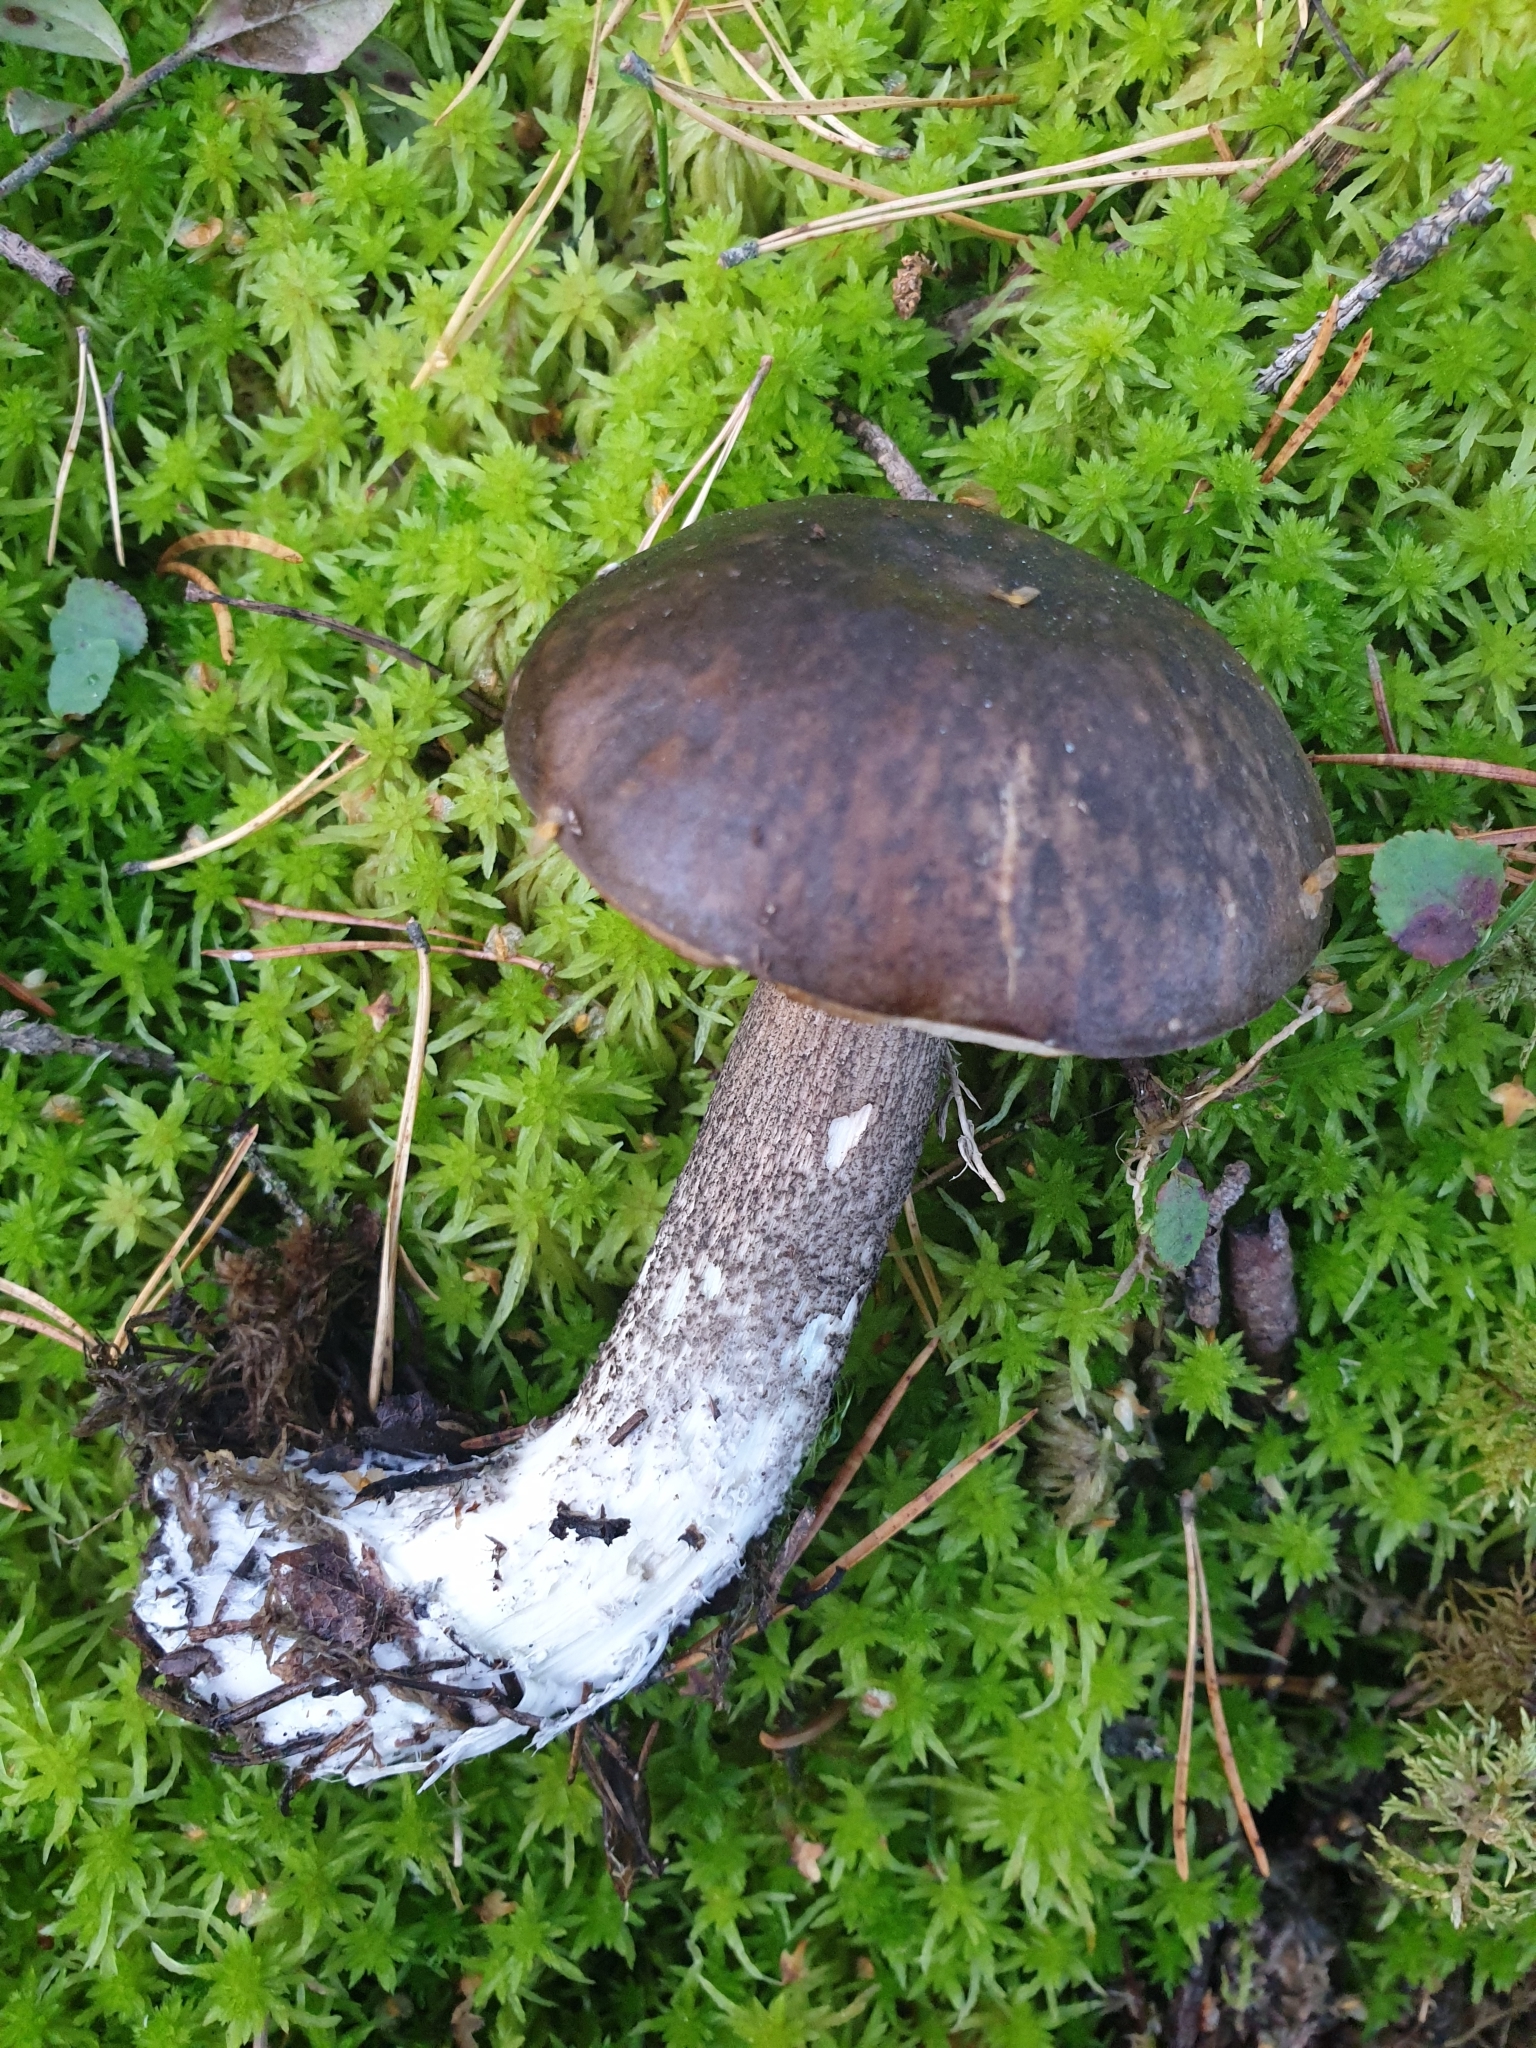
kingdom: Fungi
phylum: Basidiomycota
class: Agaricomycetes
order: Boletales
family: Boletaceae
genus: Leccinum
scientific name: Leccinum variicolor
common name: Mottled bolete
